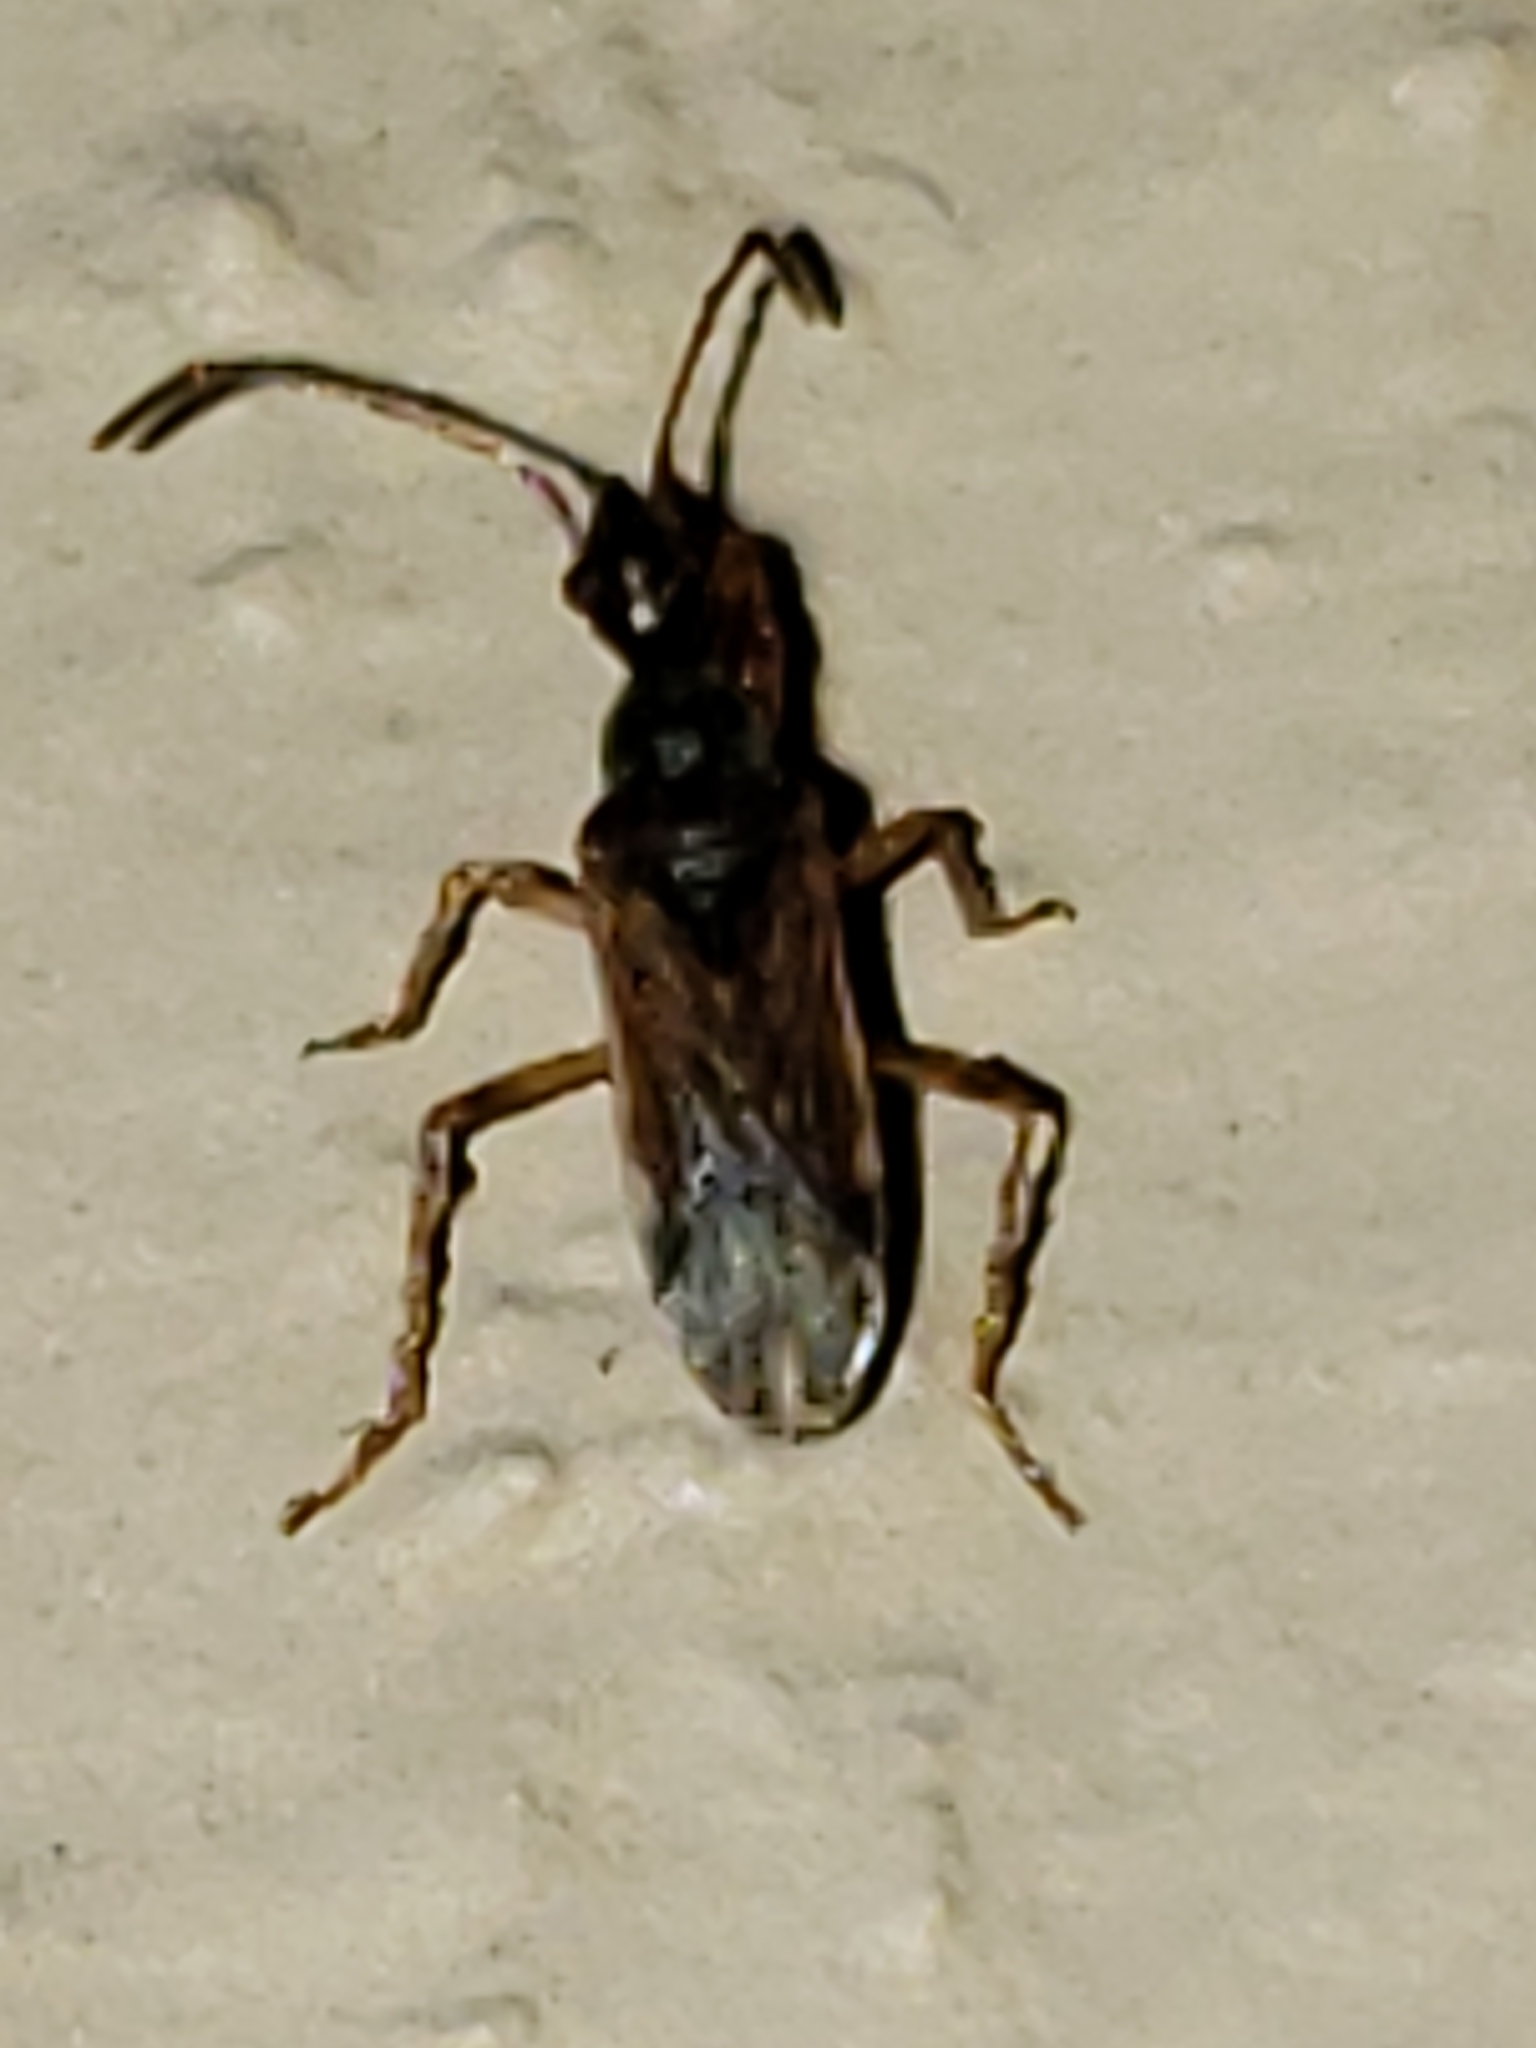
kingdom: Animalia
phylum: Arthropoda
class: Insecta
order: Hemiptera
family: Rhyparochromidae
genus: Heraeus
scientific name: Heraeus plebejus
